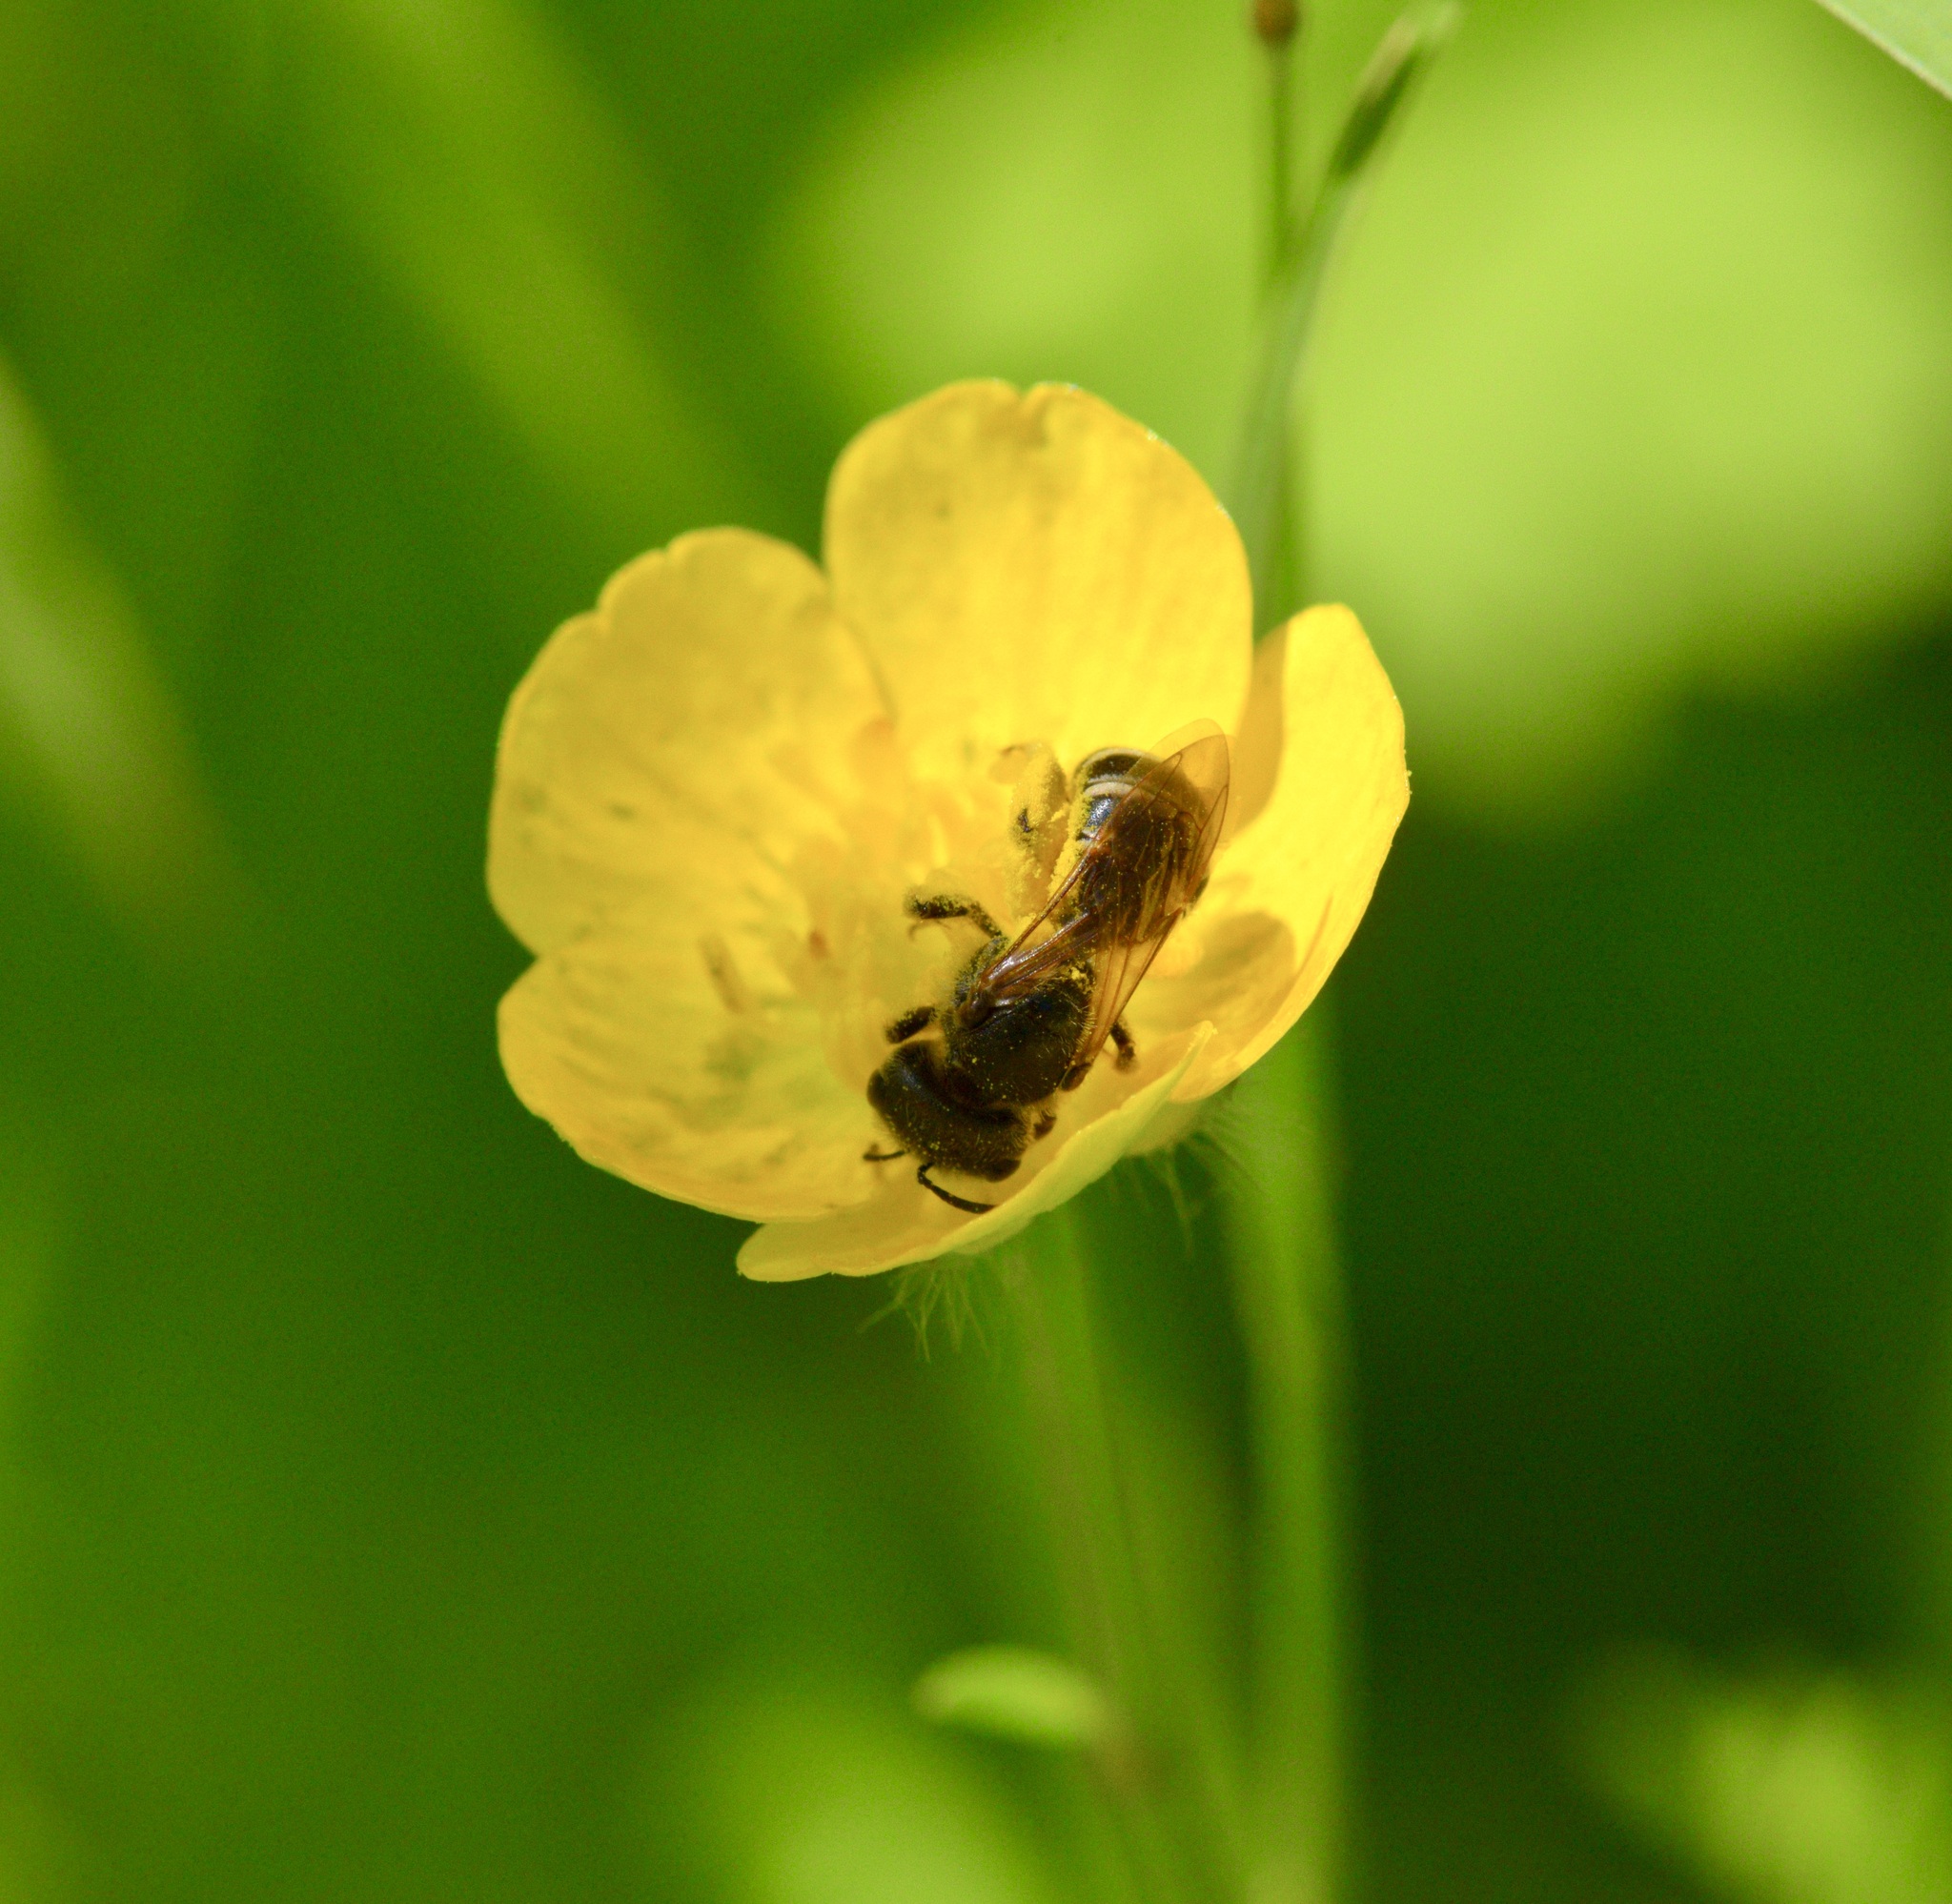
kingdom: Animalia
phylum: Arthropoda
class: Insecta
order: Hymenoptera
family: Halictidae
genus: Halictus
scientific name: Halictus ligatus
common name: Ligated furrow bee
